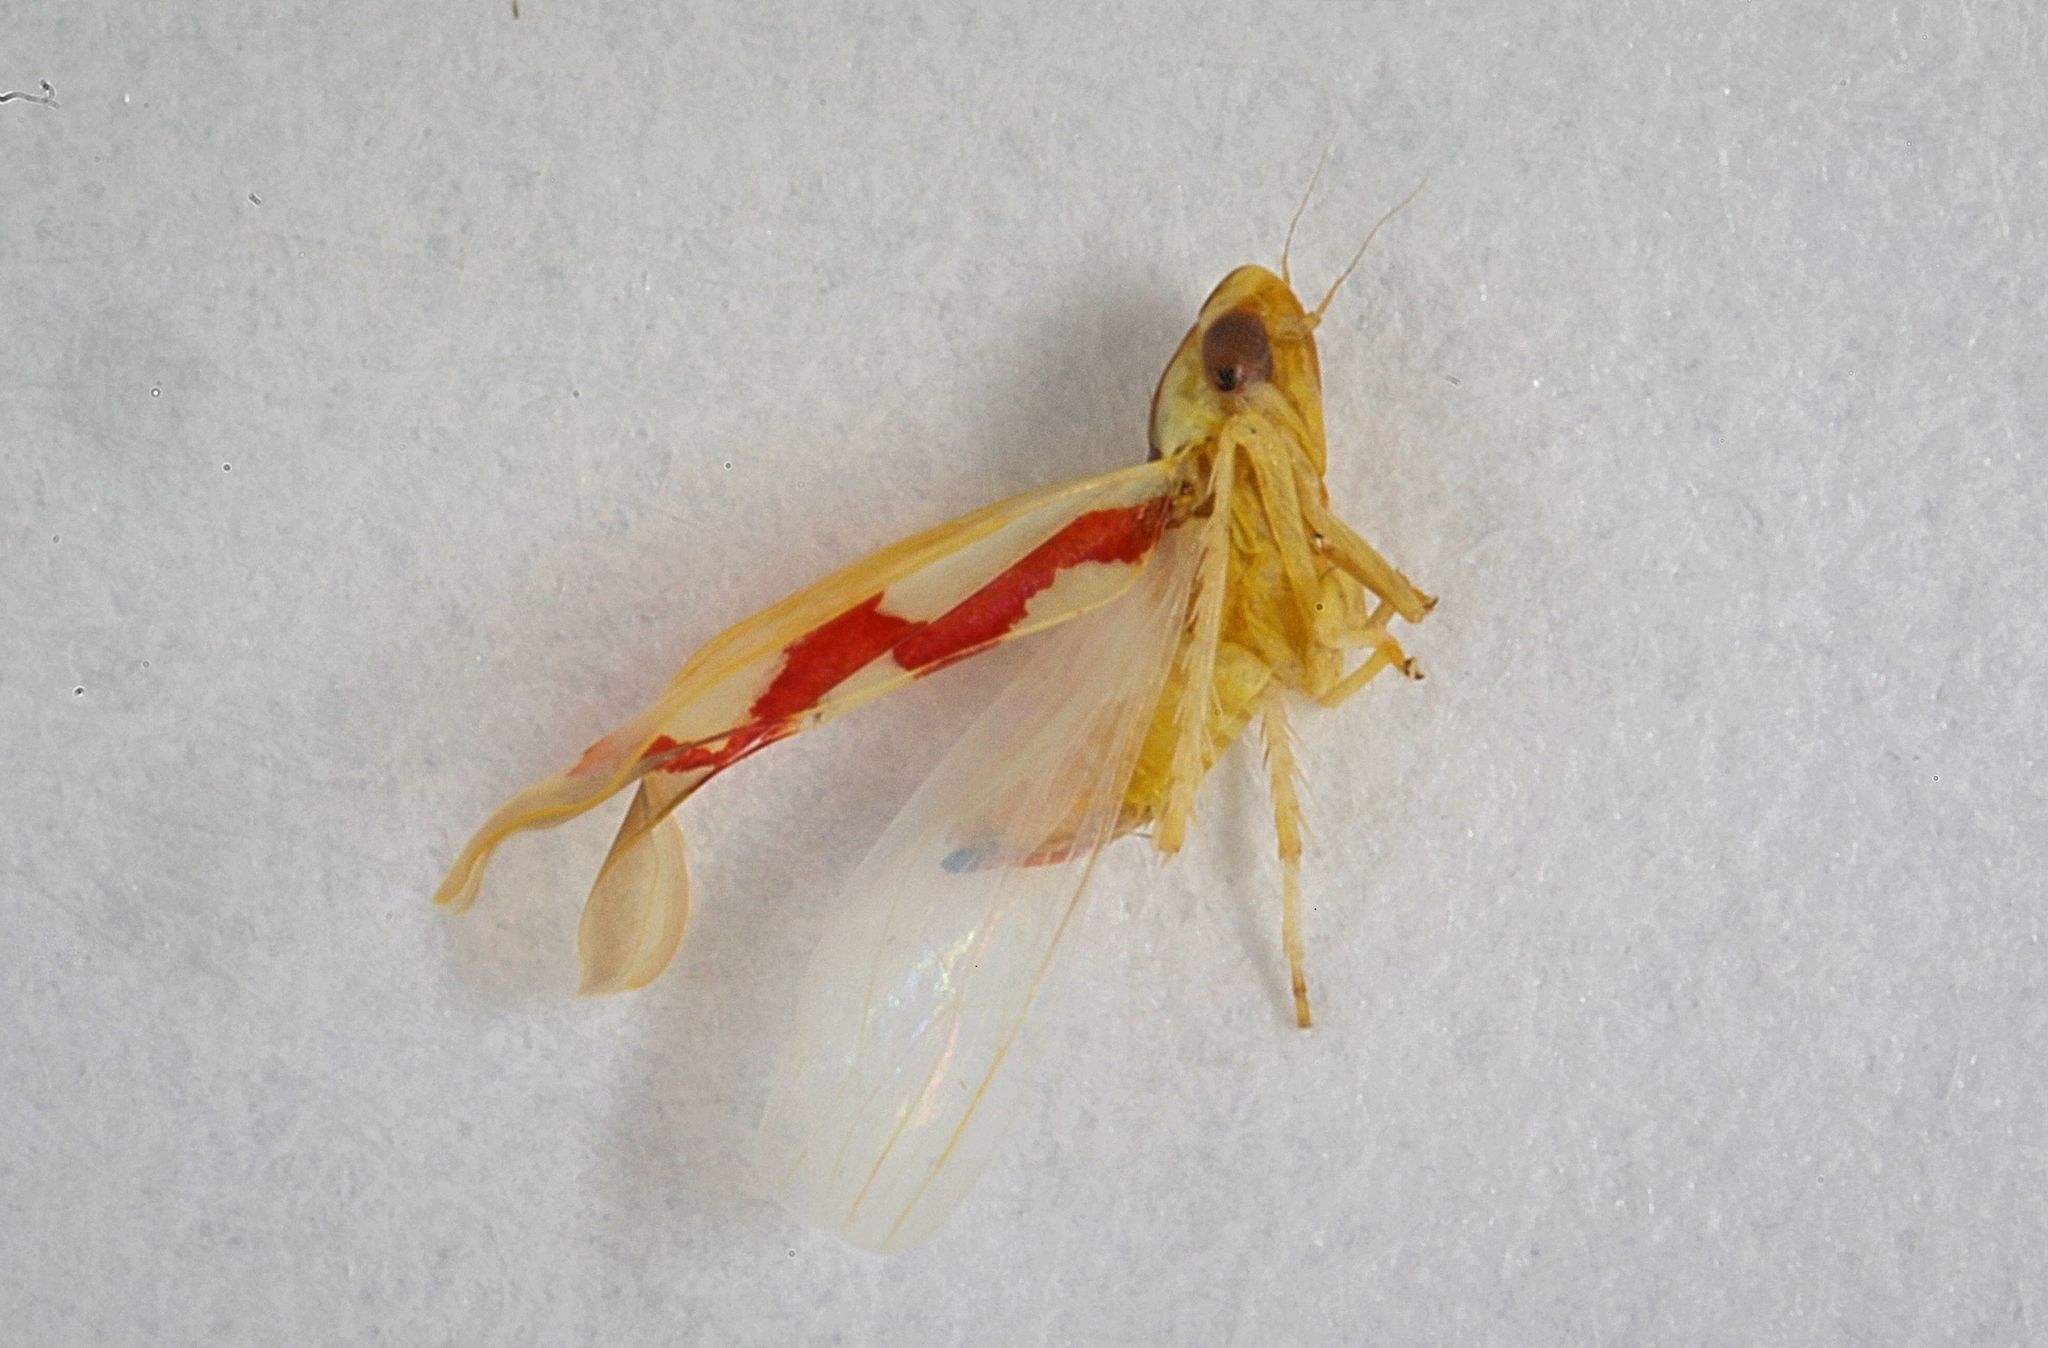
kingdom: Animalia
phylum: Arthropoda
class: Insecta
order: Hemiptera
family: Cicadellidae
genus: Zygina
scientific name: Zygina flammigera
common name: Leafhopper
